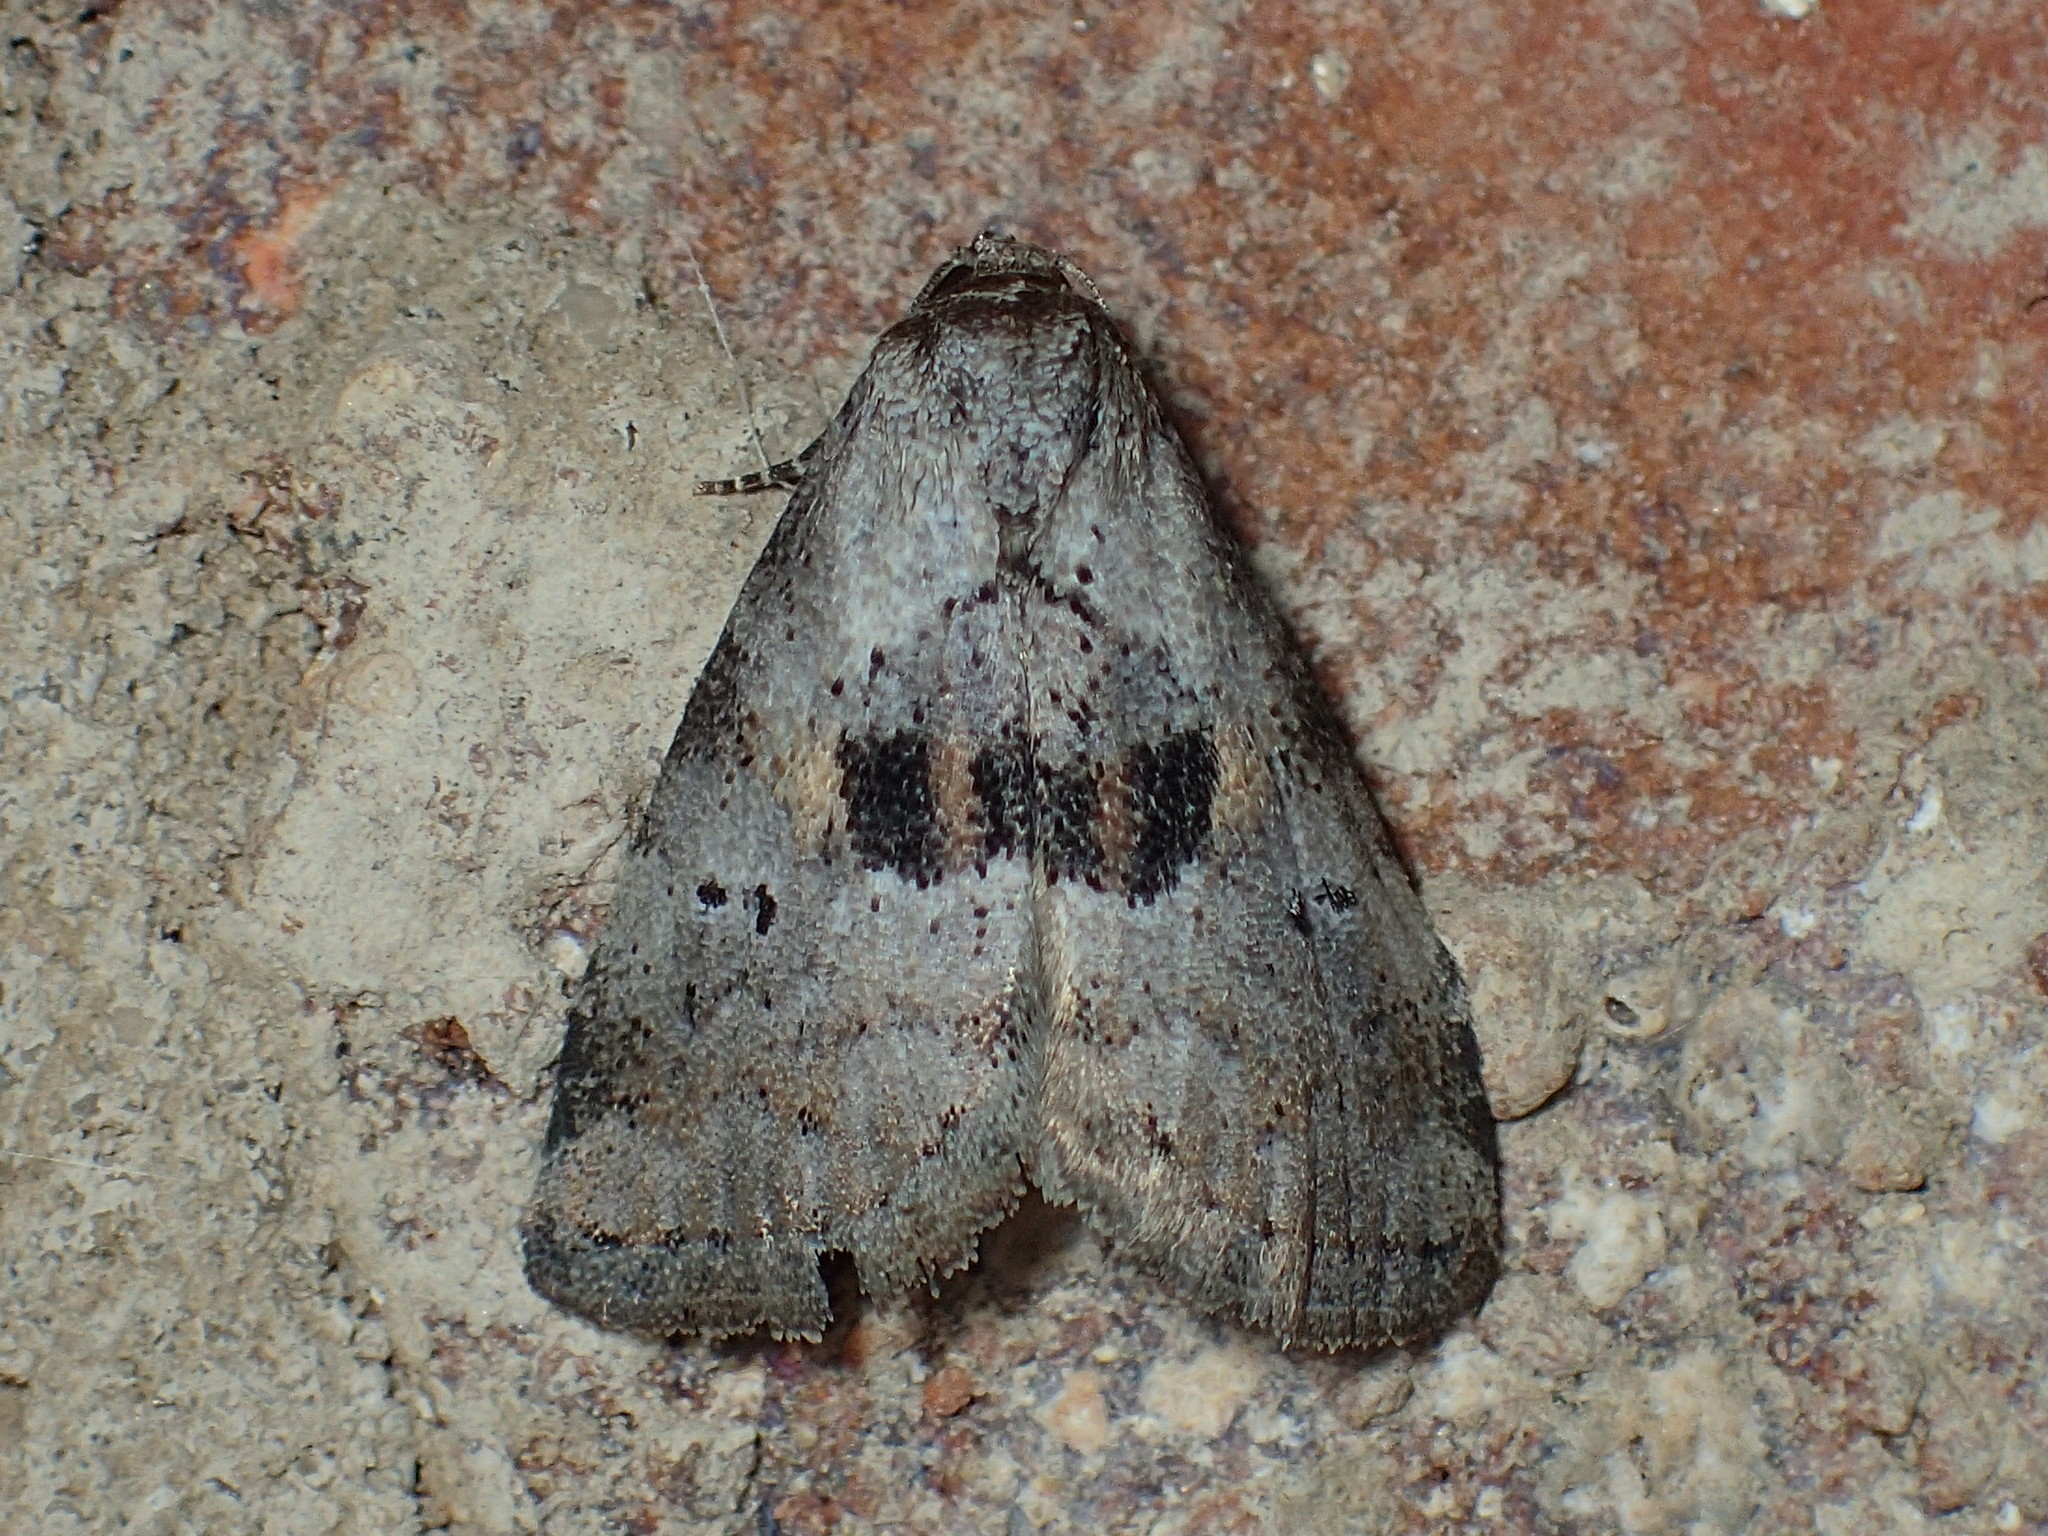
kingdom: Animalia
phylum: Arthropoda
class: Insecta
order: Lepidoptera
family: Erebidae
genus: Hyperstrotia
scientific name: Hyperstrotia secta
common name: Black-patched graylet
